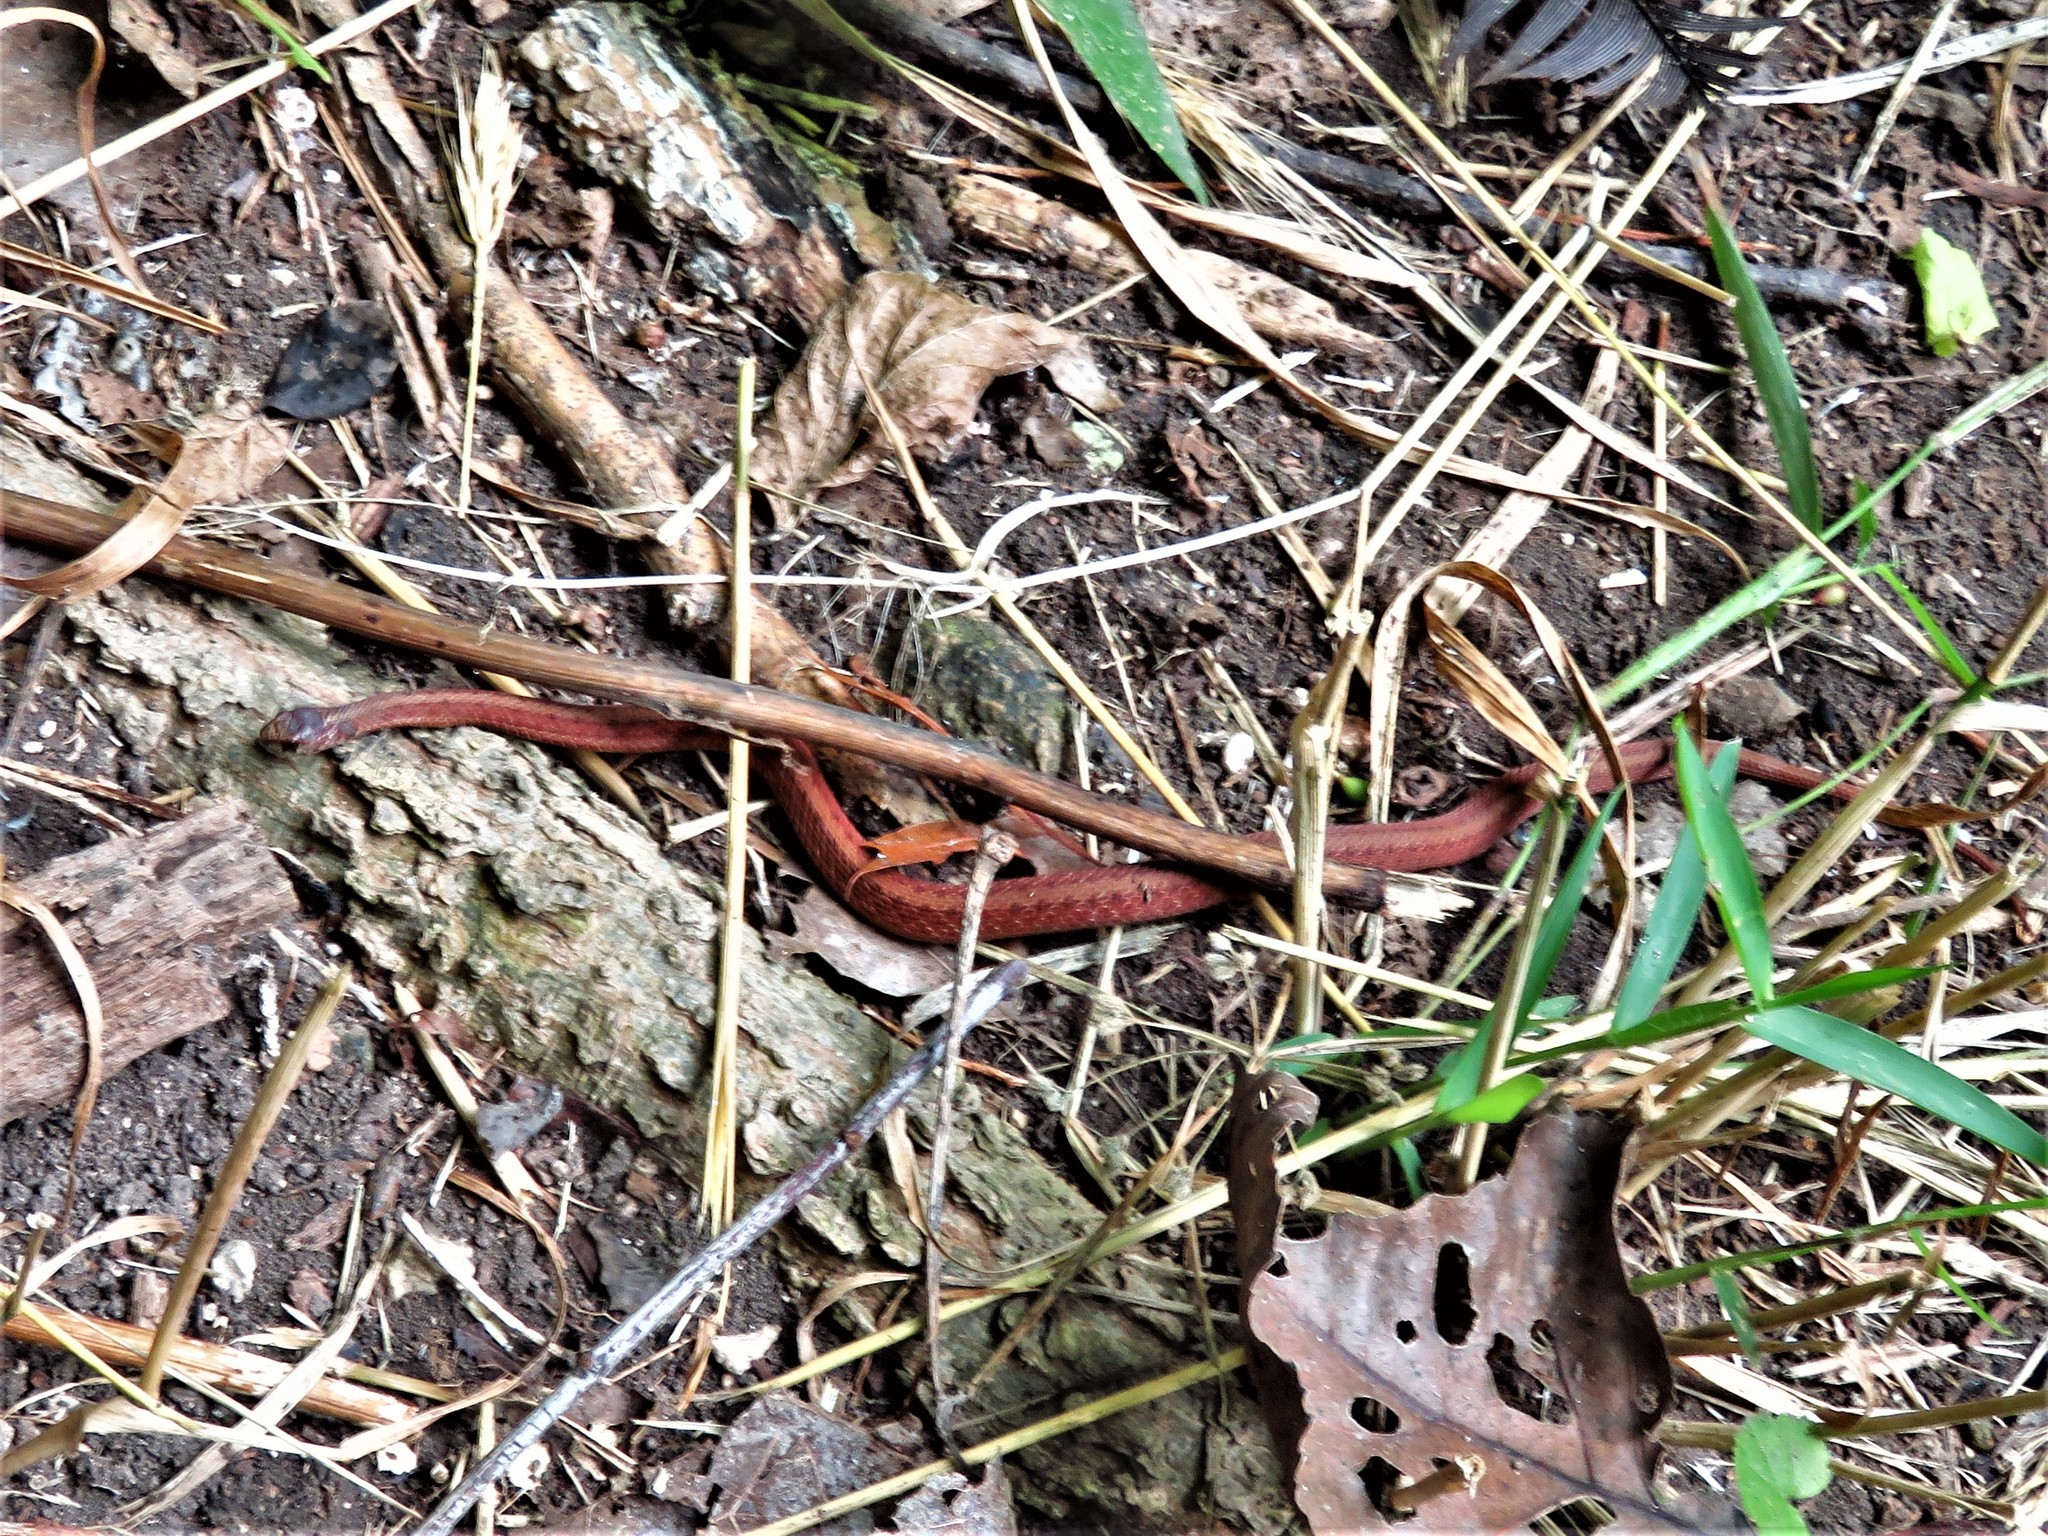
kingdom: Animalia
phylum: Chordata
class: Squamata
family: Colubridae
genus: Storeria
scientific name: Storeria dekayi
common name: (dekay’s) brown snake
